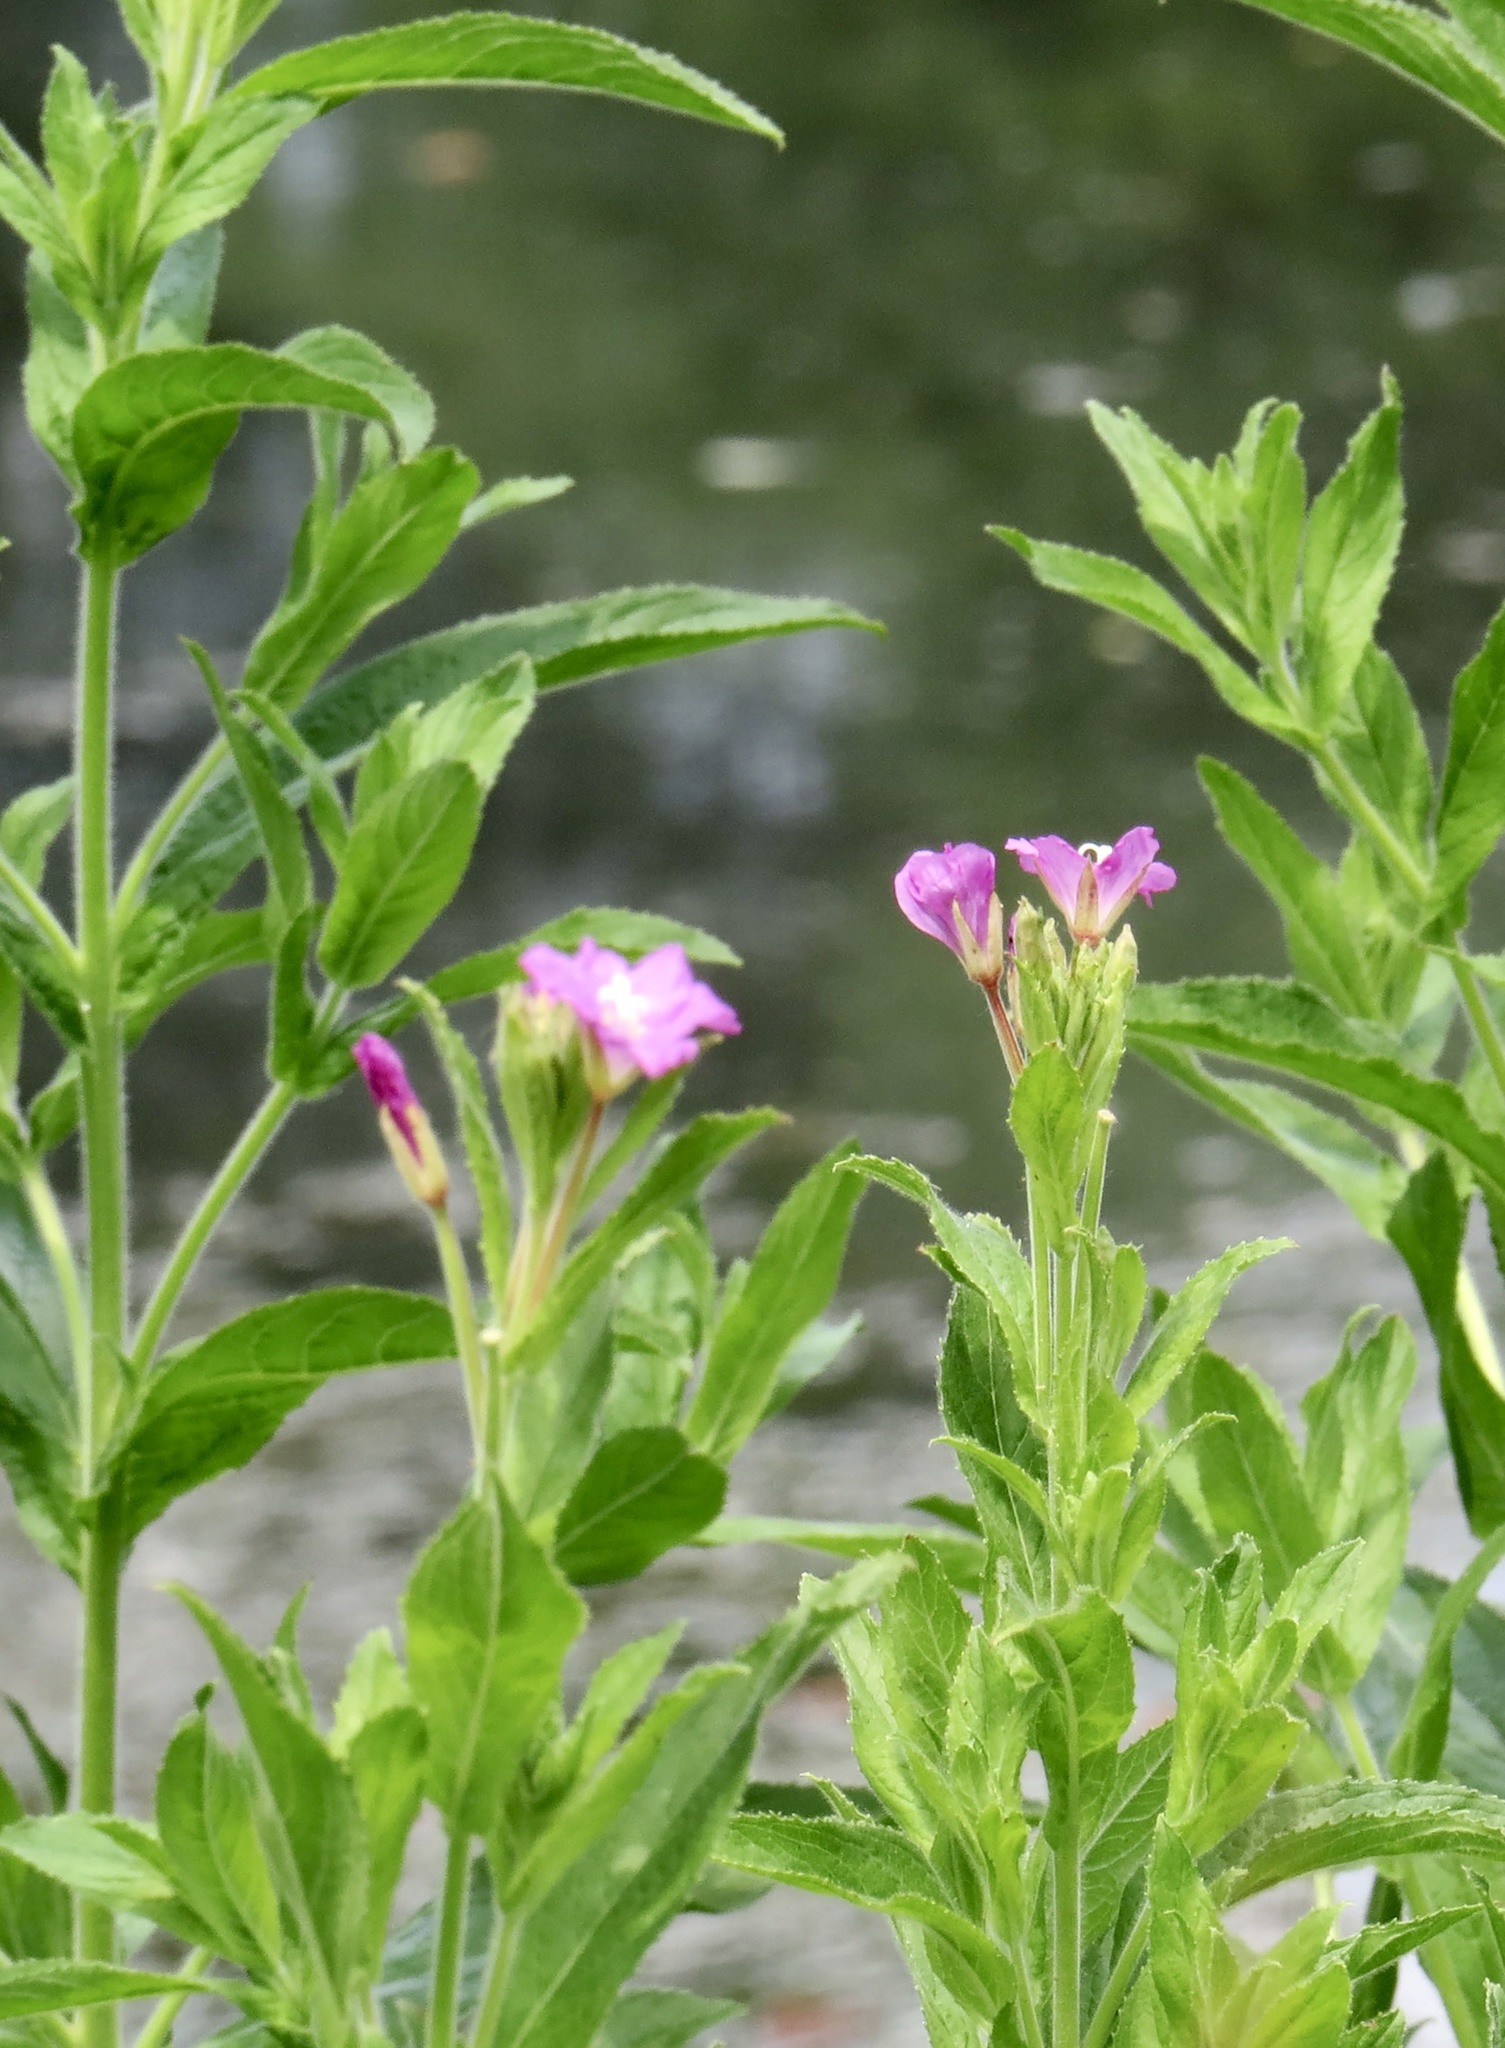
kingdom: Plantae
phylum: Tracheophyta
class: Magnoliopsida
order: Myrtales
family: Onagraceae
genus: Epilobium
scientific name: Epilobium hirsutum
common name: Great willowherb
